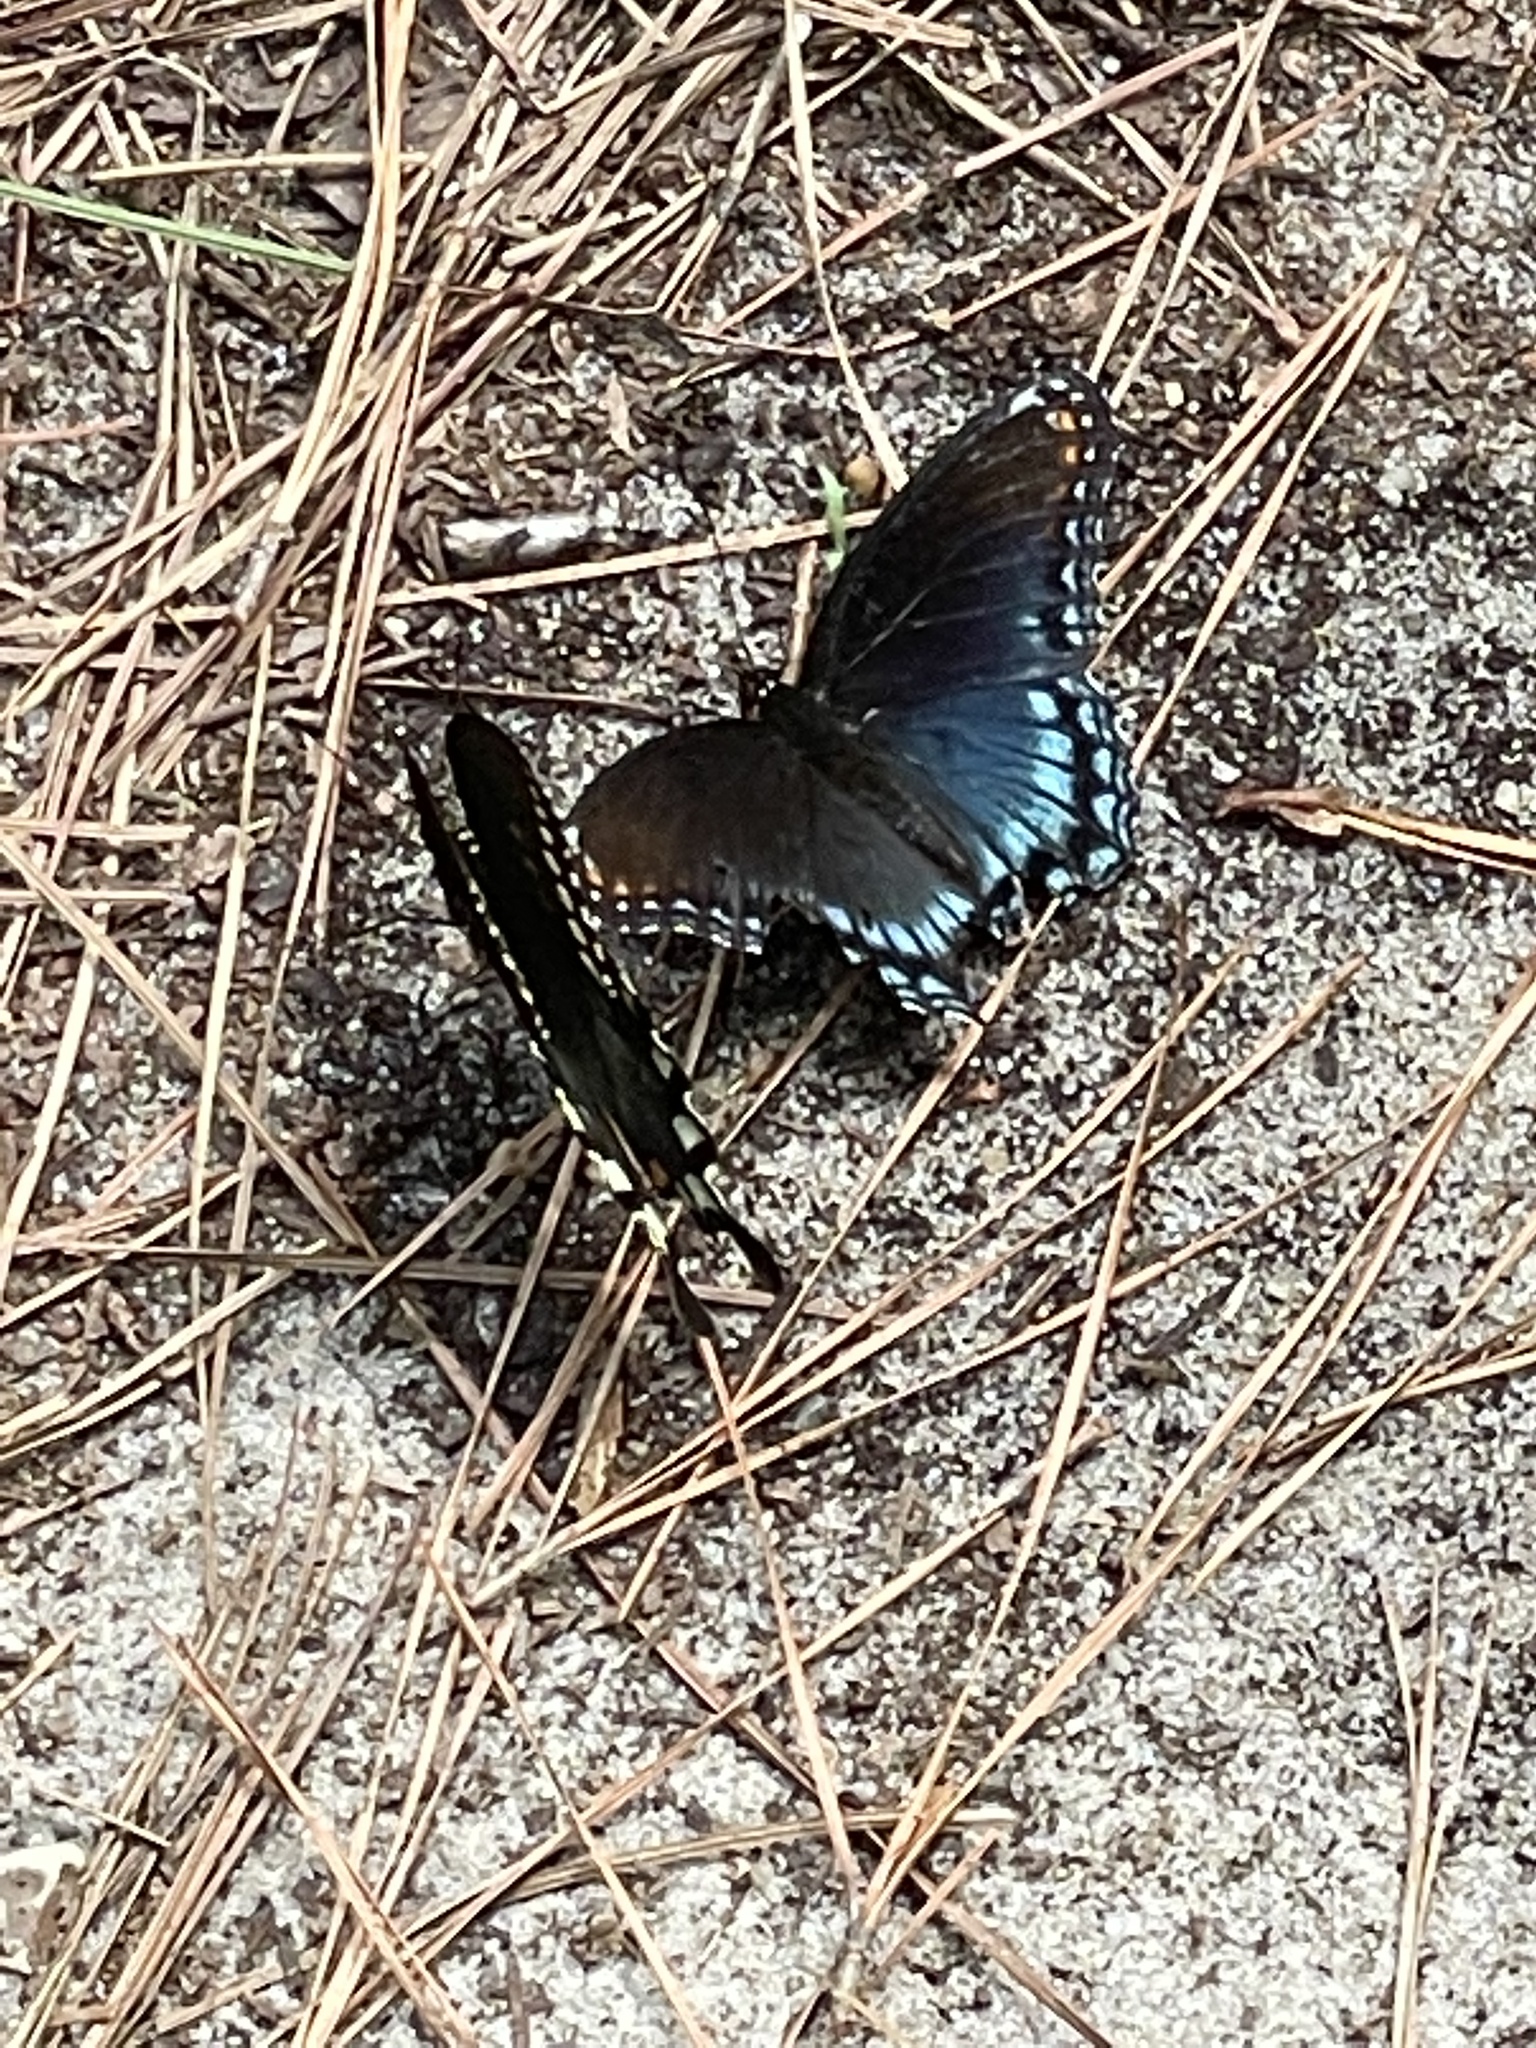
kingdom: Animalia
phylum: Arthropoda
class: Insecta
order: Lepidoptera
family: Nymphalidae
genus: Limenitis
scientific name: Limenitis astyanax
